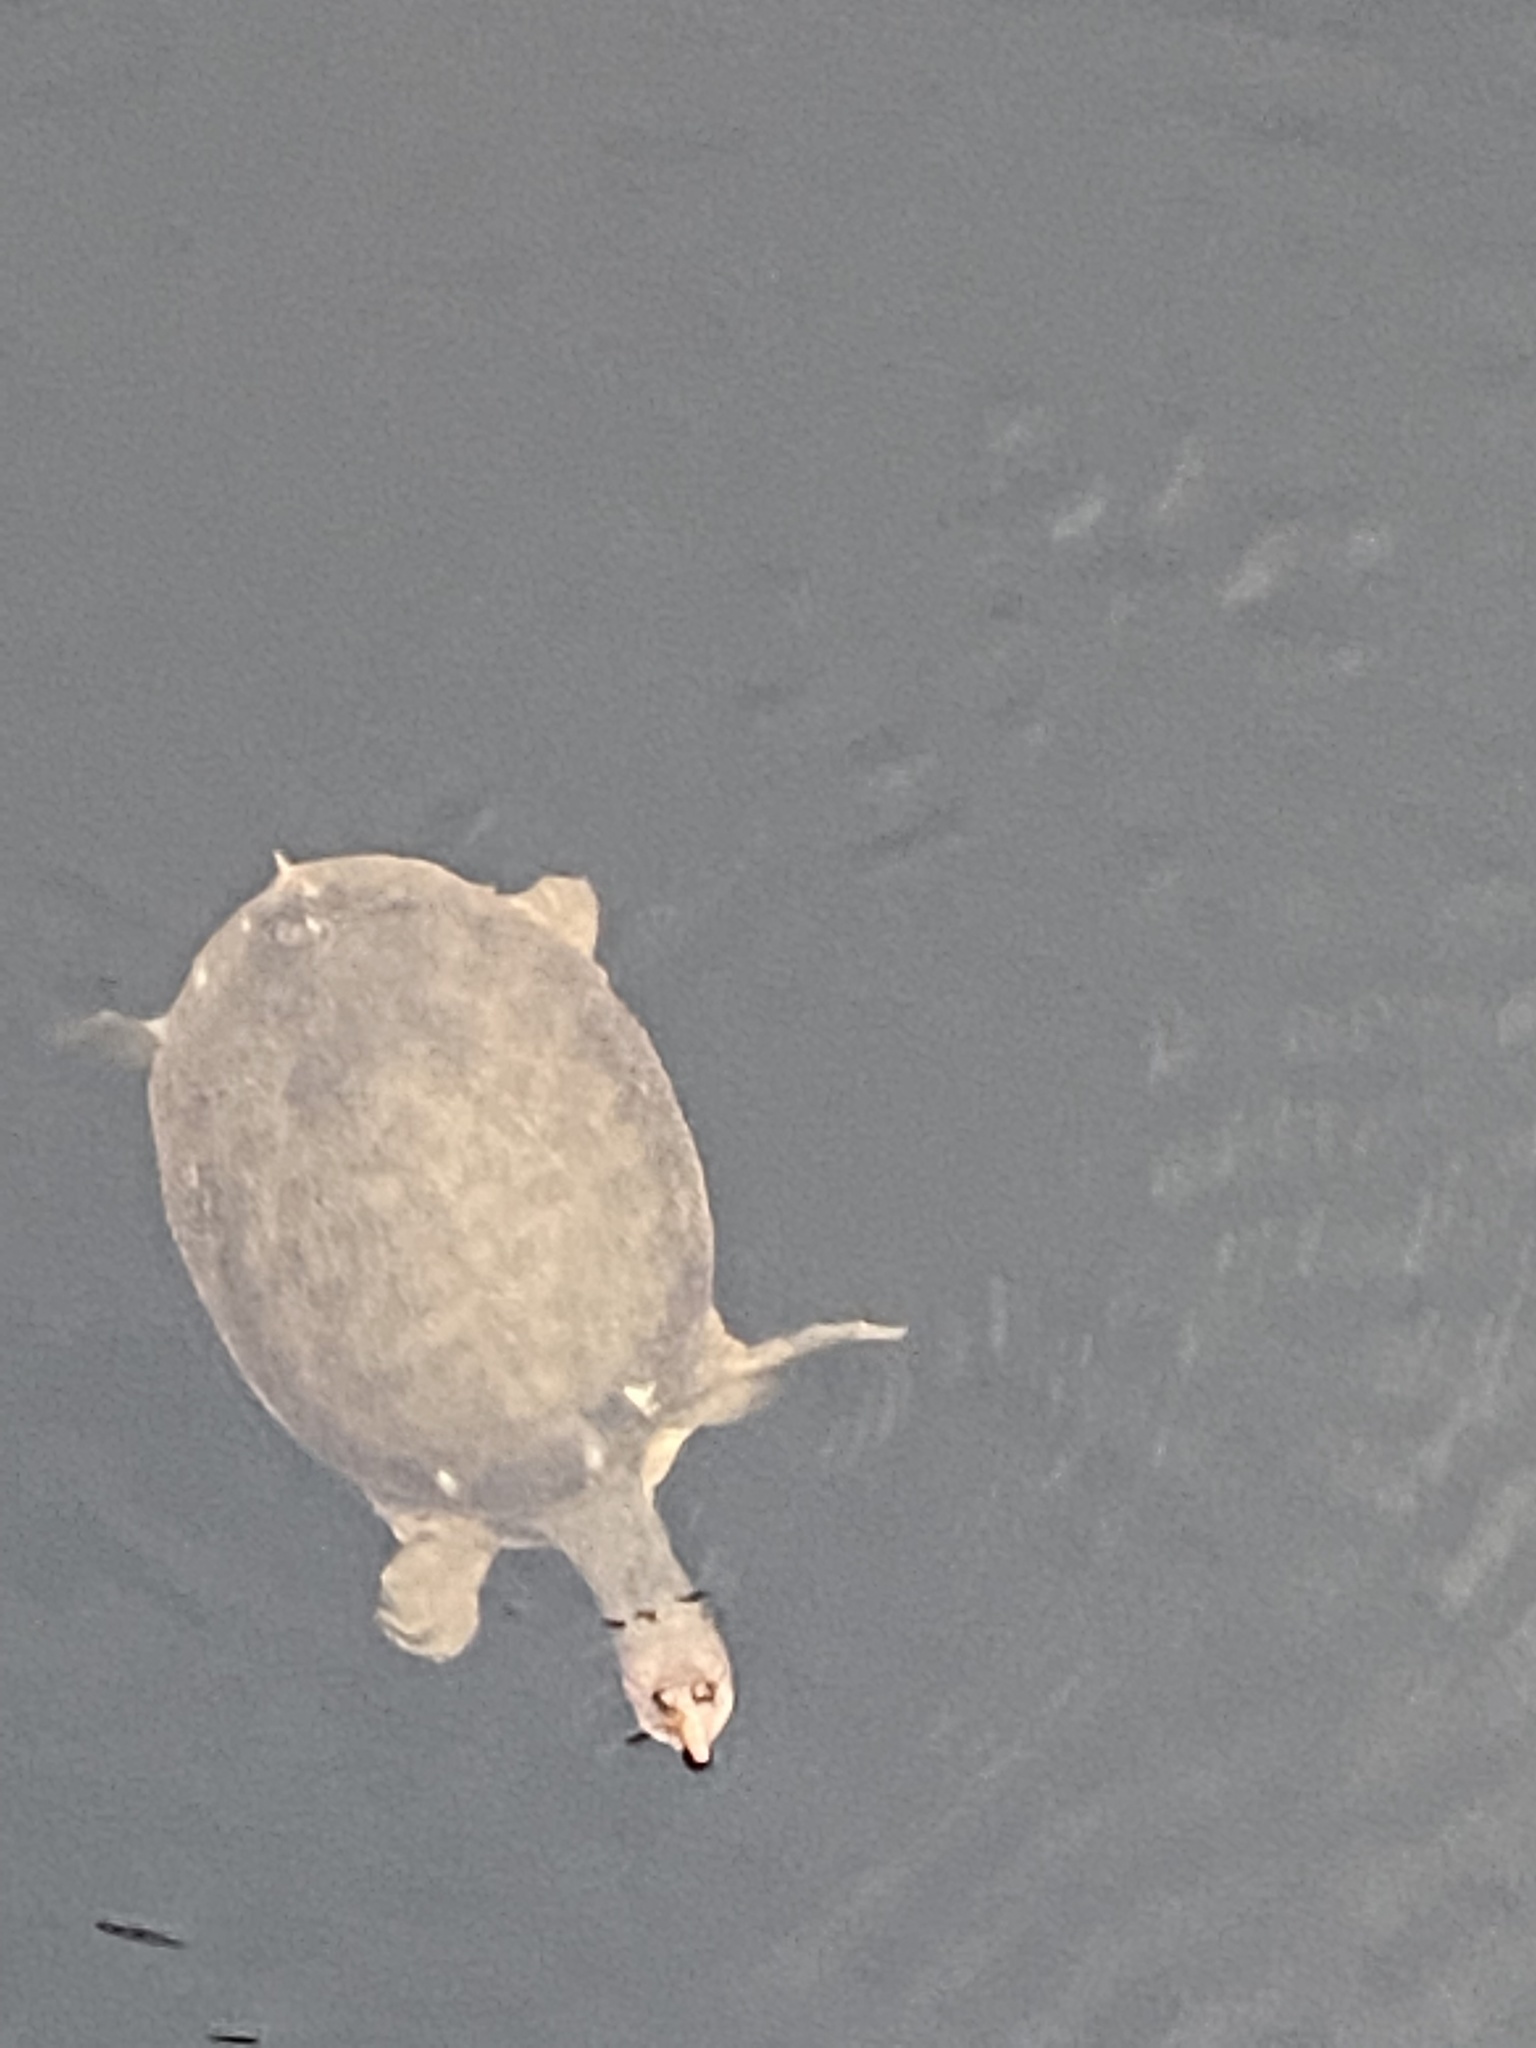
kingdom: Animalia
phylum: Chordata
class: Testudines
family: Trionychidae
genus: Apalone
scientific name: Apalone ferox
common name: Florida softshell turtle
